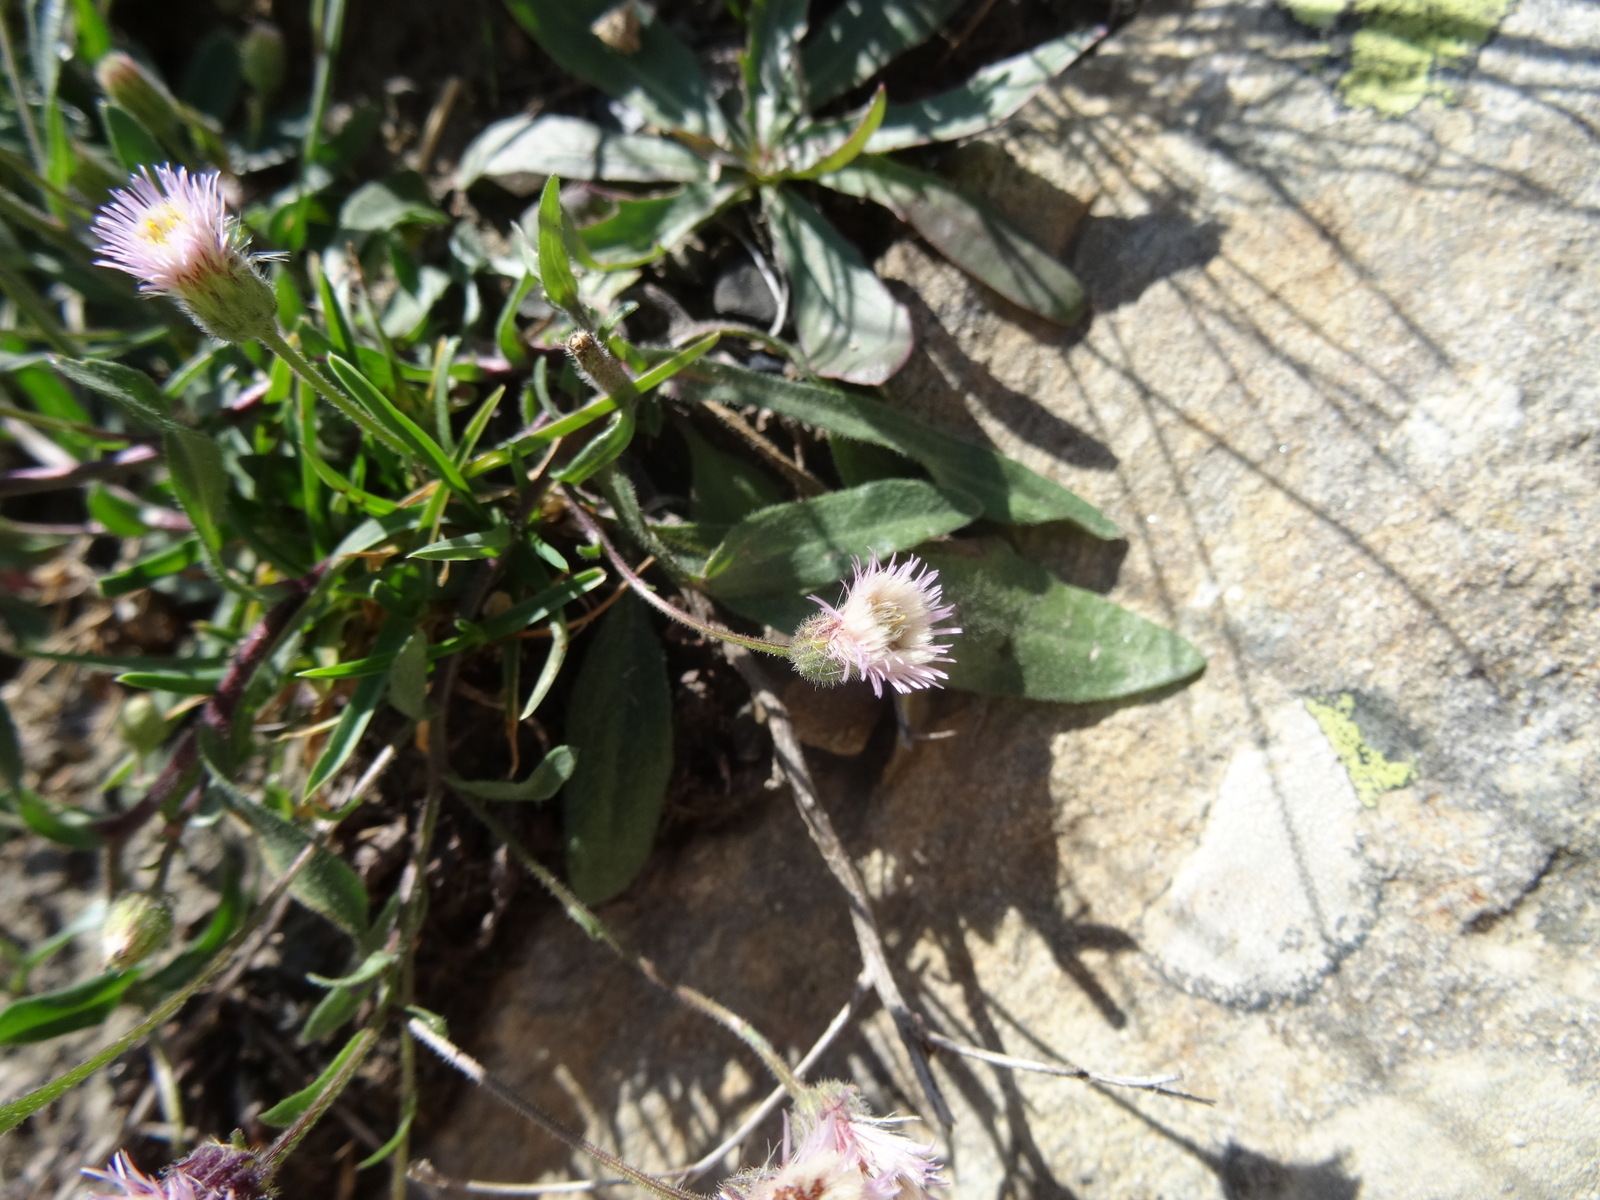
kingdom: Plantae
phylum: Tracheophyta
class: Magnoliopsida
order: Asterales
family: Asteraceae
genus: Erigeron
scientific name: Erigeron alpinus
